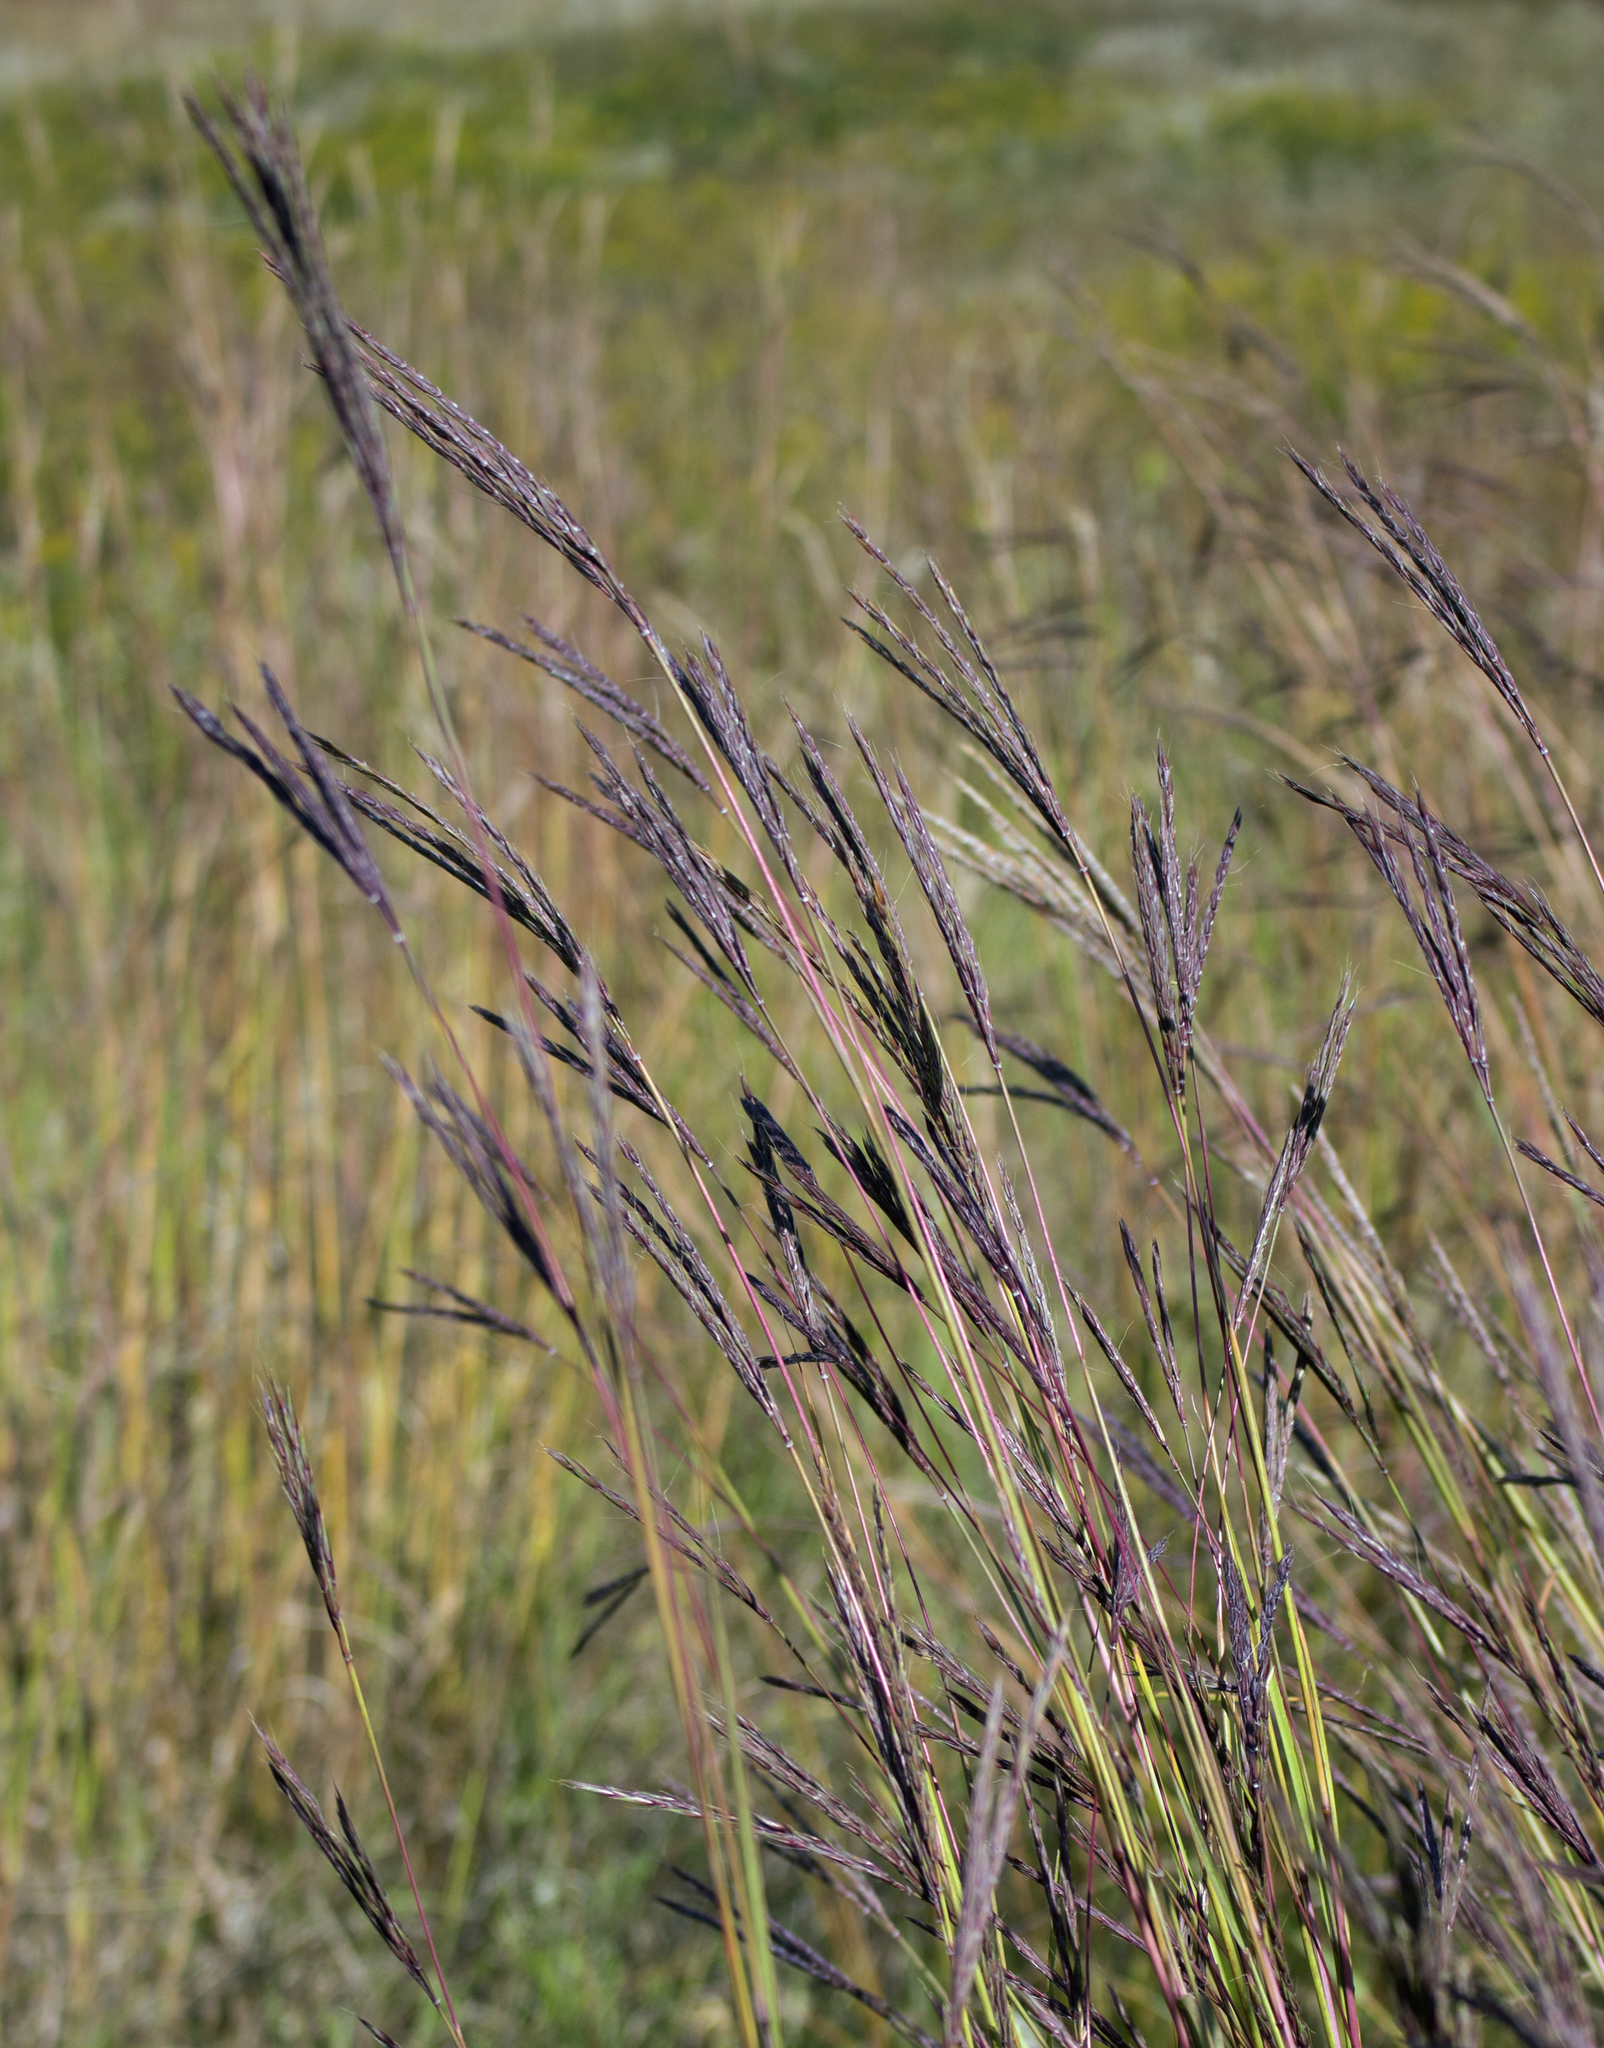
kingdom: Plantae
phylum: Tracheophyta
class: Liliopsida
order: Poales
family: Poaceae
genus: Andropogon
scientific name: Andropogon gerardi
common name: Big bluestem
